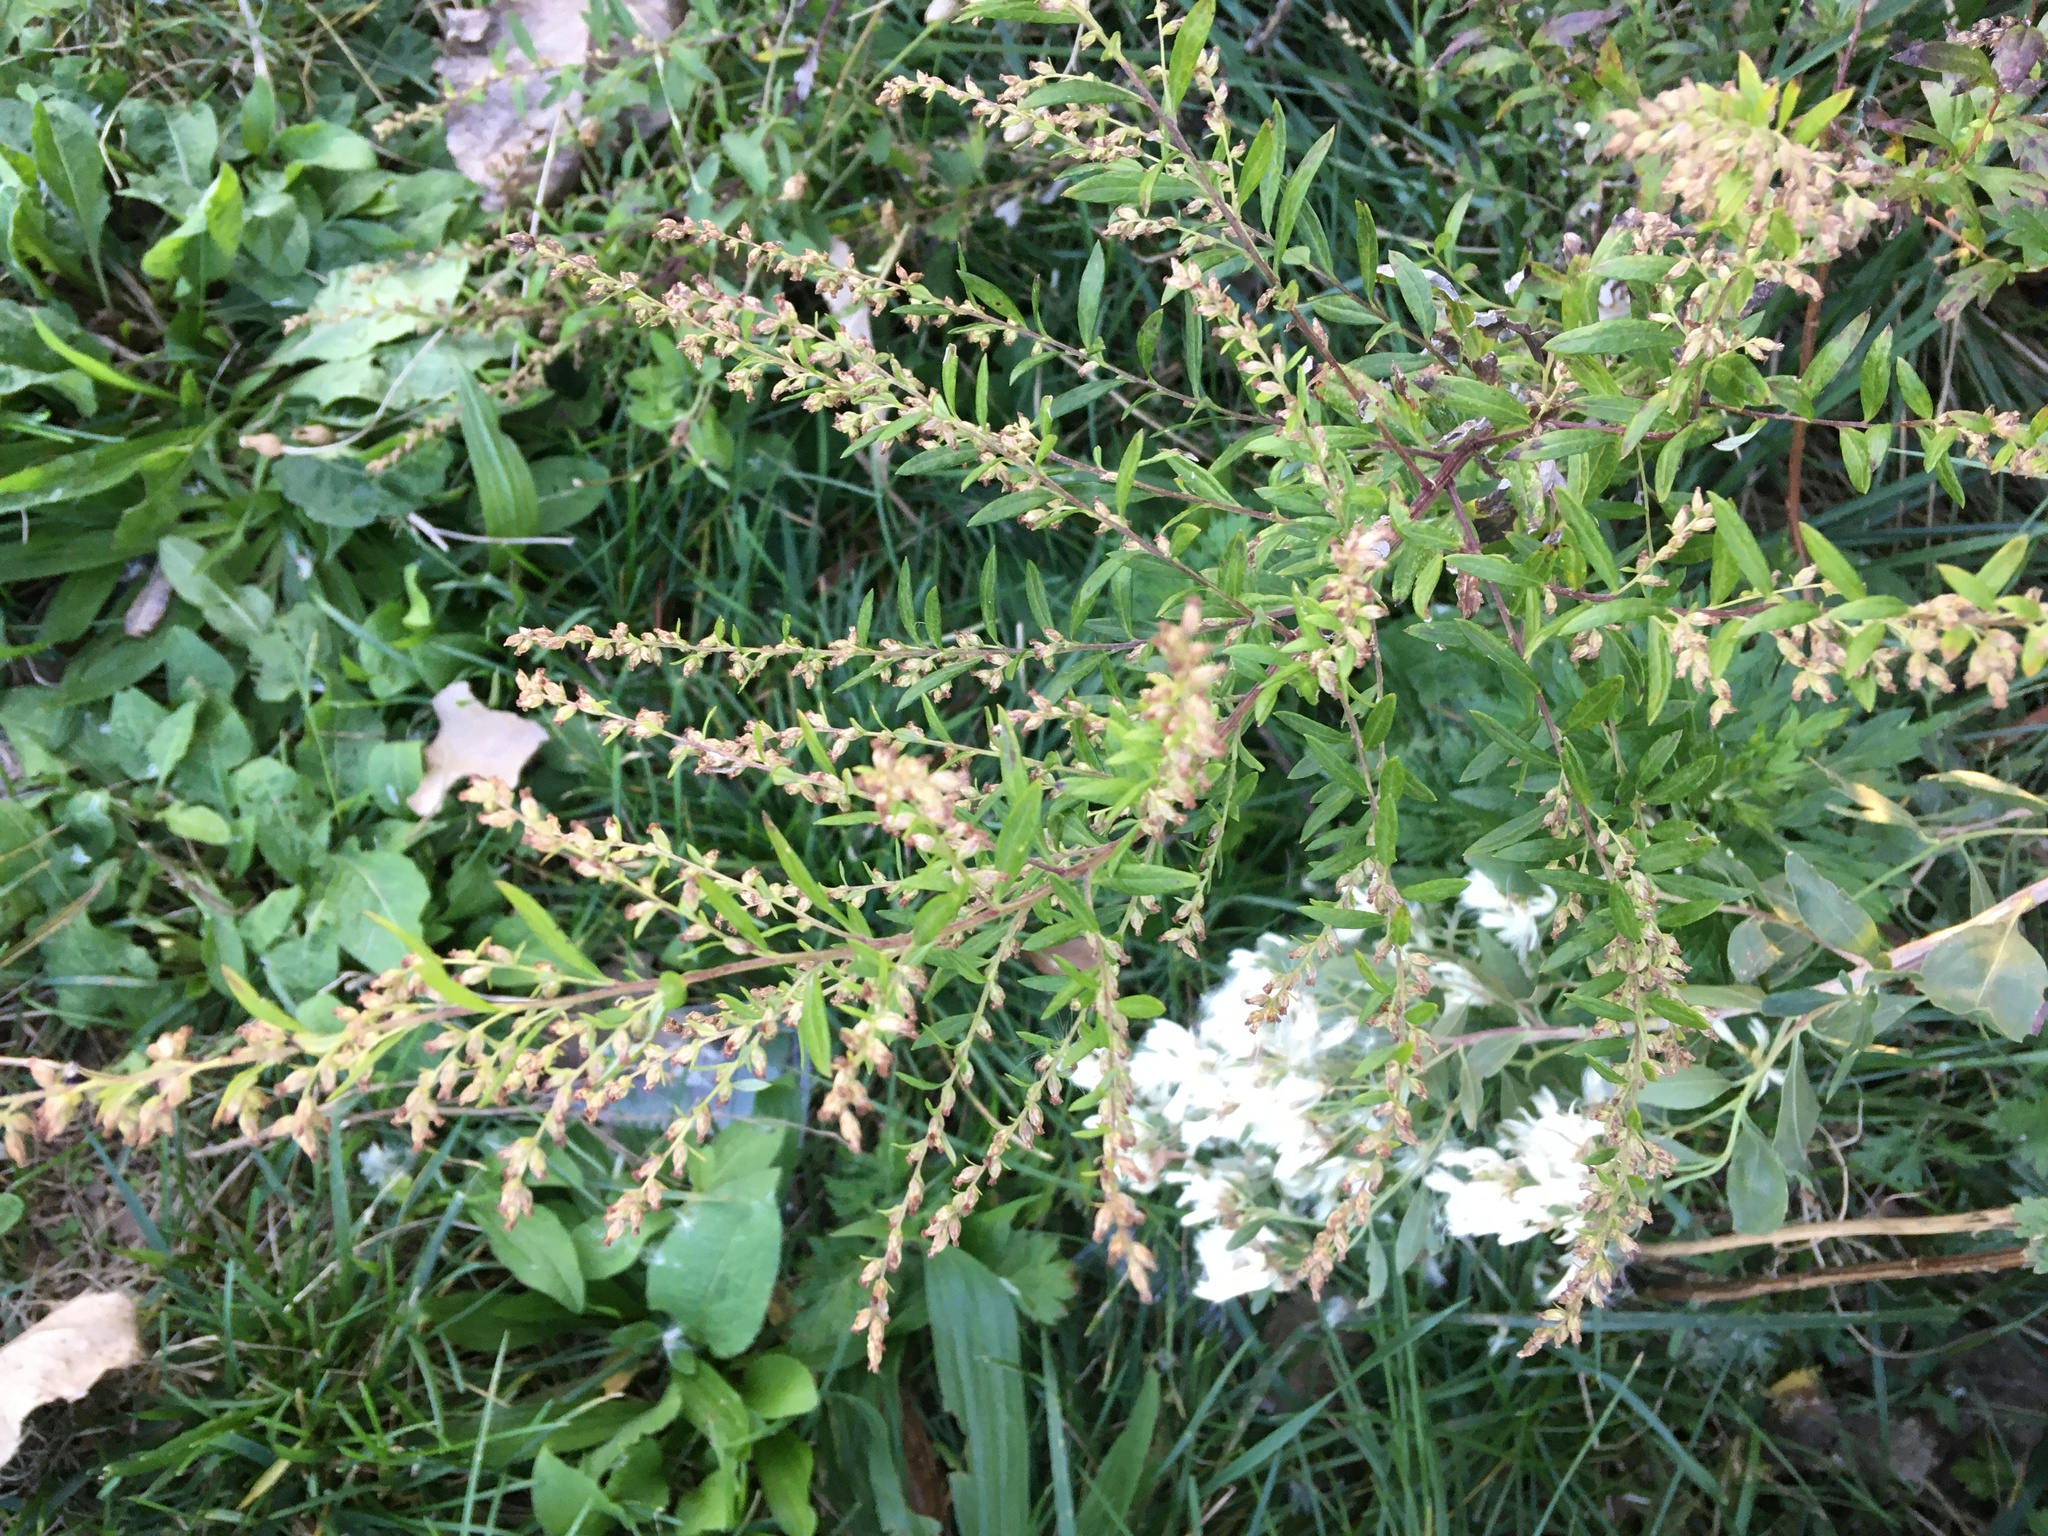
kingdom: Plantae
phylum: Tracheophyta
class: Magnoliopsida
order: Asterales
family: Asteraceae
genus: Artemisia
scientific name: Artemisia vulgaris
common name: Mugwort
